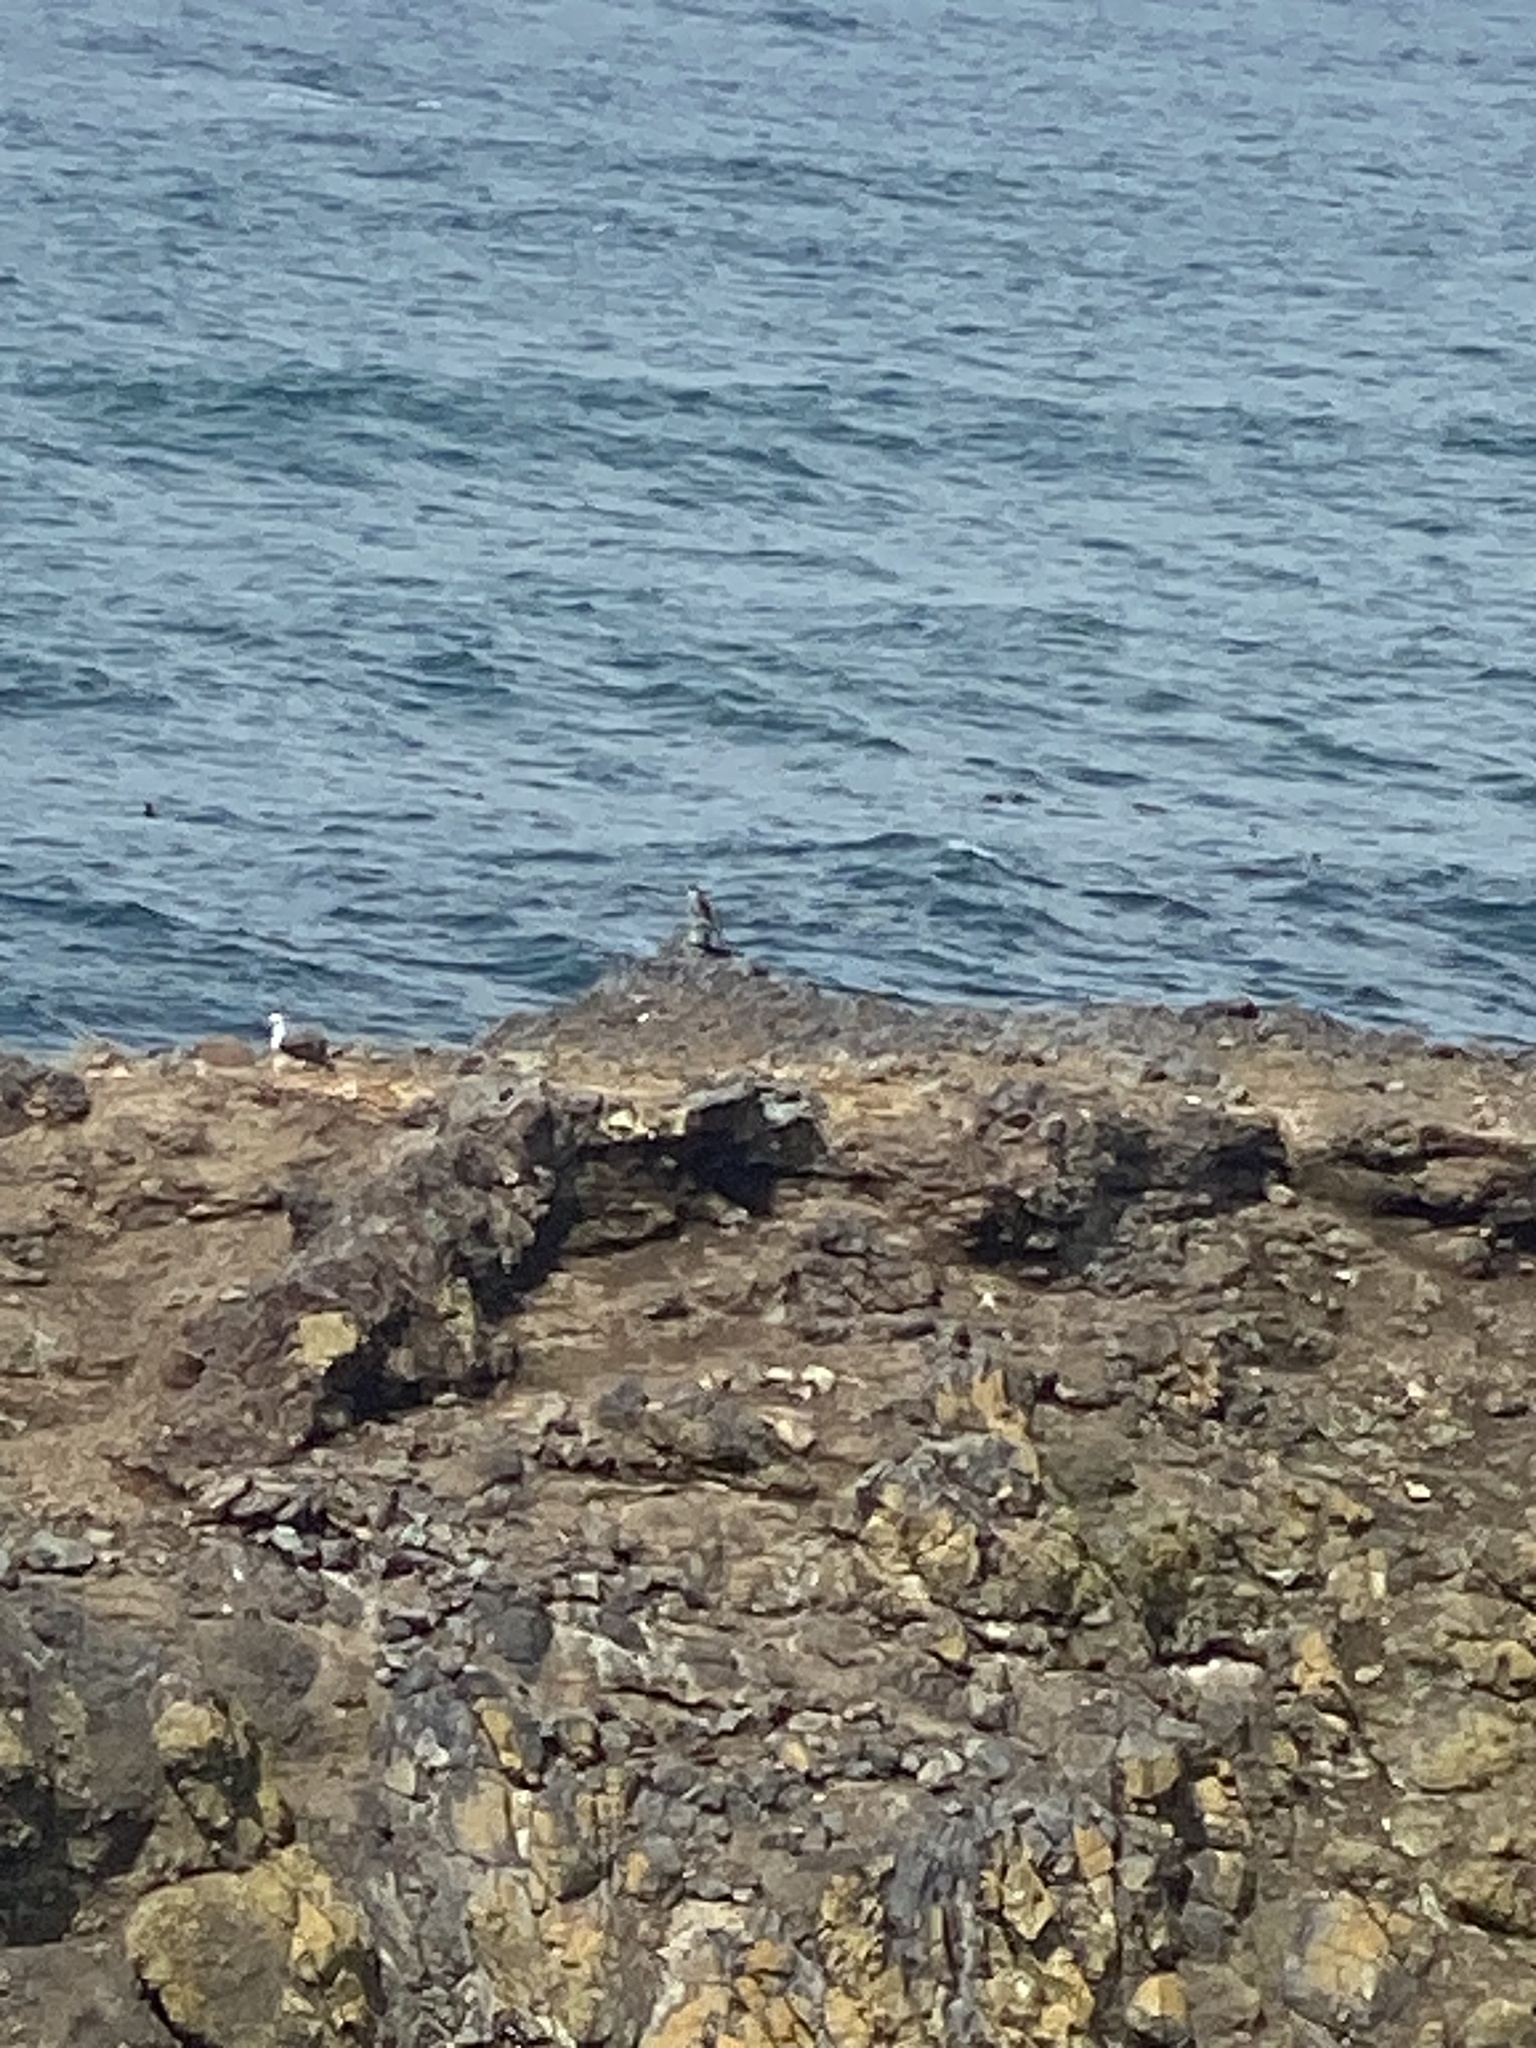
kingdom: Animalia
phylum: Chordata
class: Aves
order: Falconiformes
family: Falconidae
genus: Falco
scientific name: Falco peregrinus
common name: Peregrine falcon
